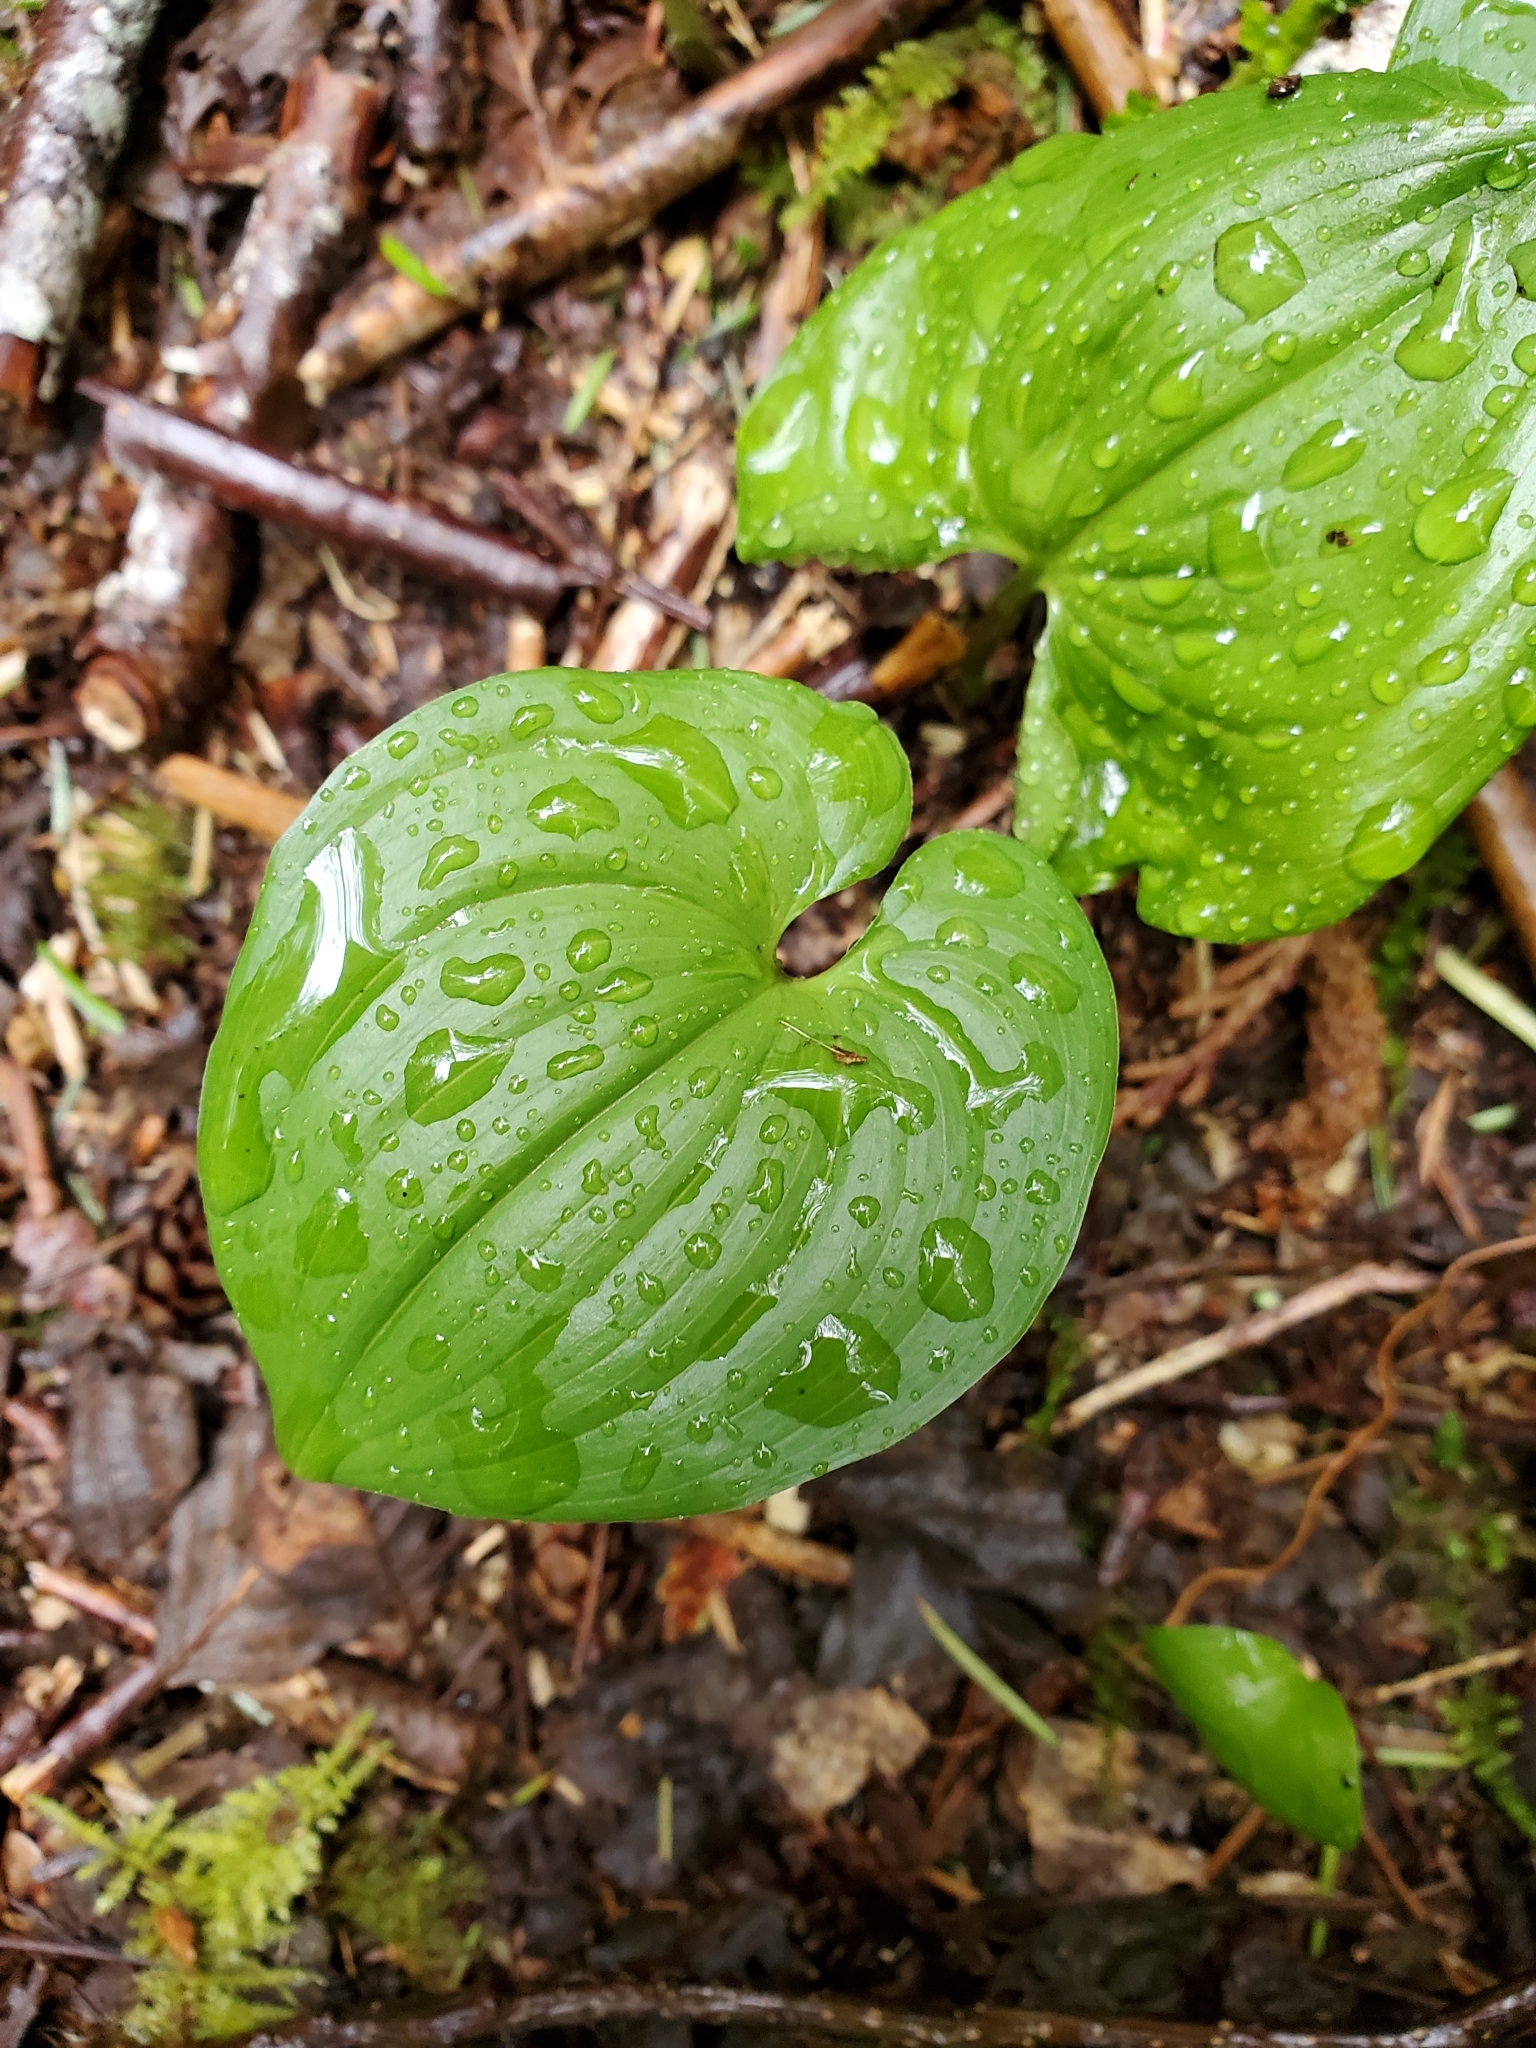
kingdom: Plantae
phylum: Tracheophyta
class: Liliopsida
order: Asparagales
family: Asparagaceae
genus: Maianthemum
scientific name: Maianthemum dilatatum
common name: False lily-of-the-valley
